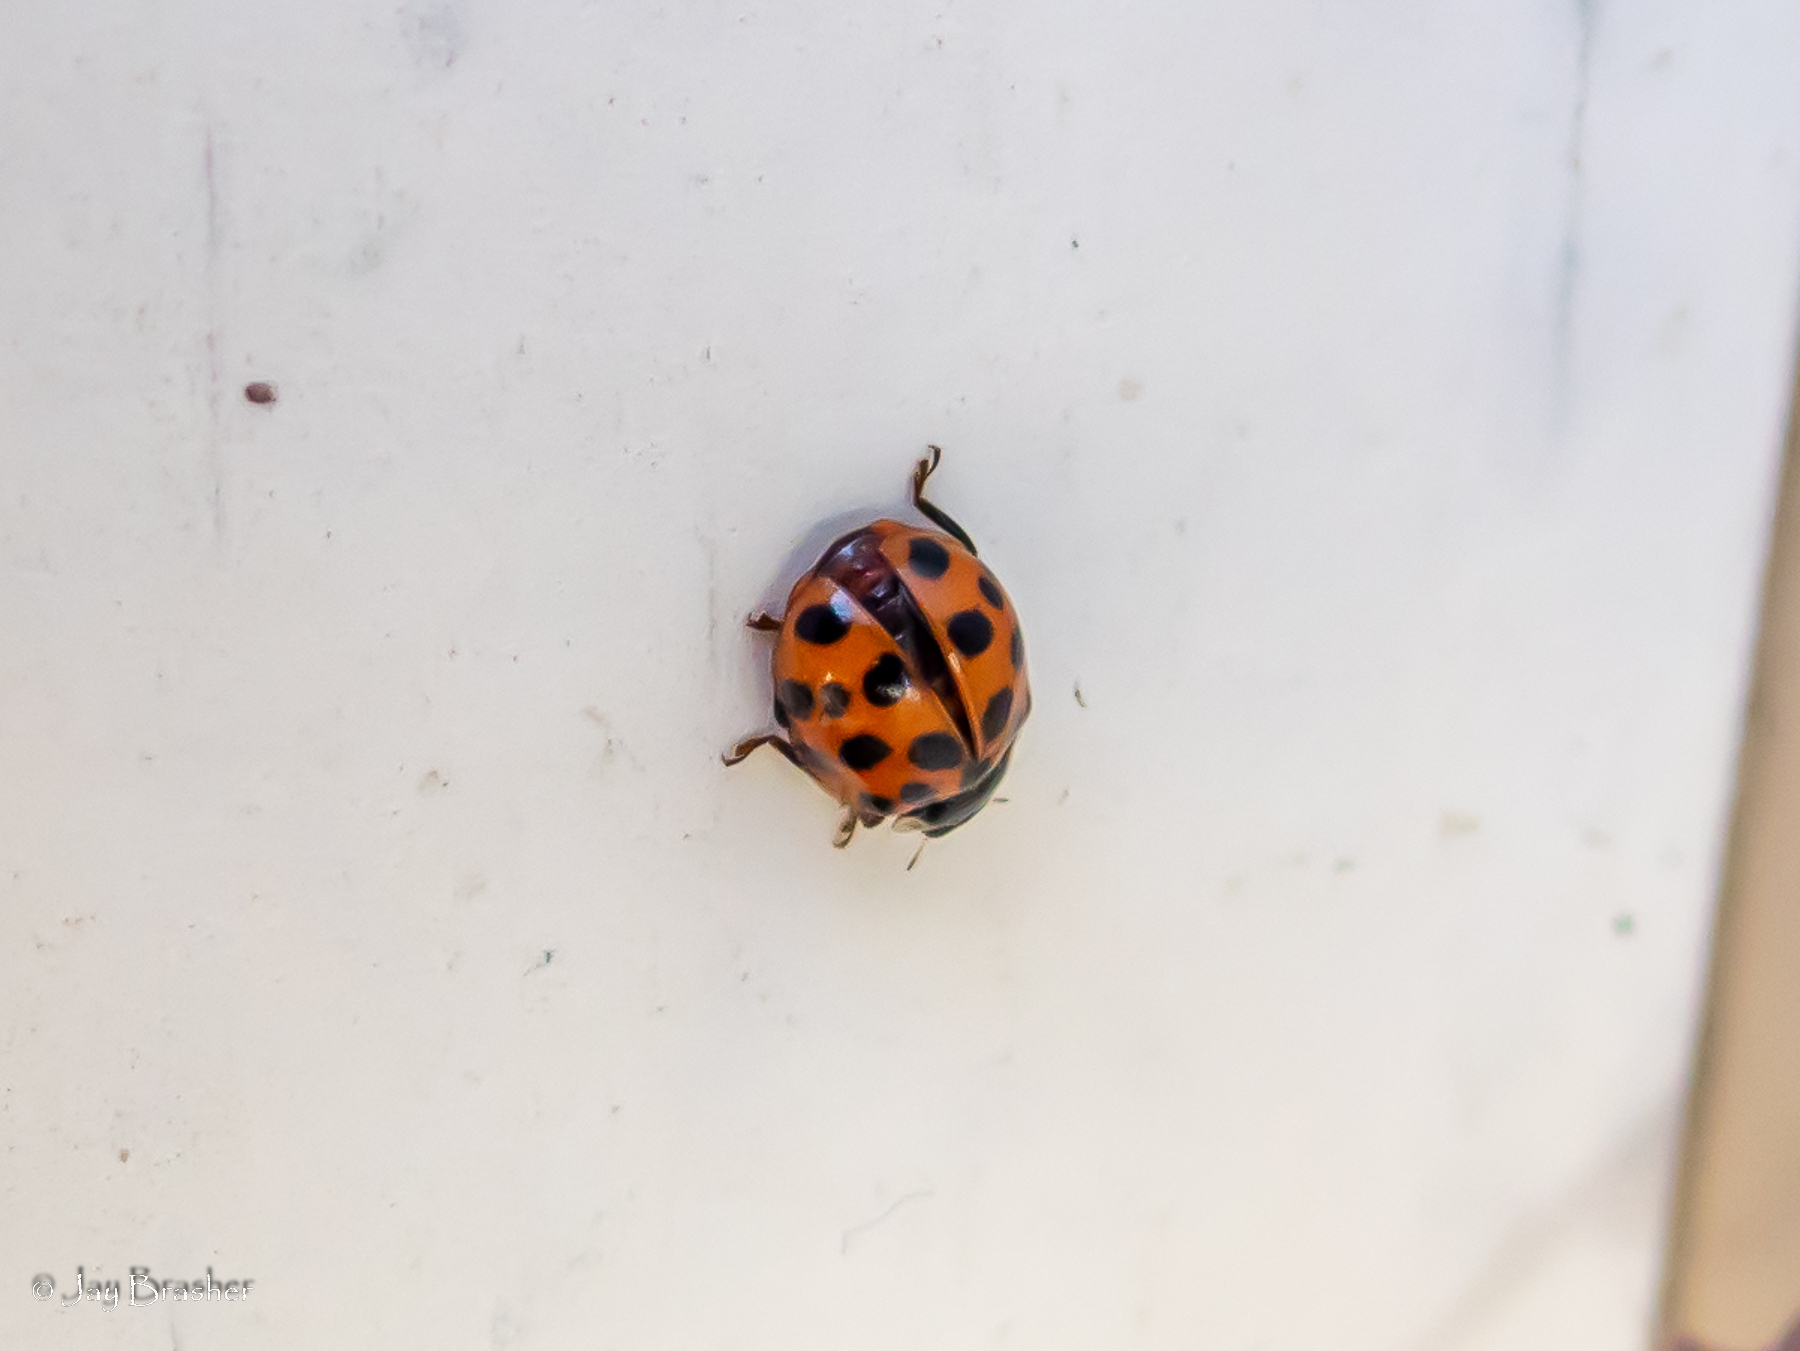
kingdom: Animalia
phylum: Arthropoda
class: Insecta
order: Coleoptera
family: Coccinellidae
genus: Harmonia
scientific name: Harmonia axyridis
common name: Harlequin ladybird
